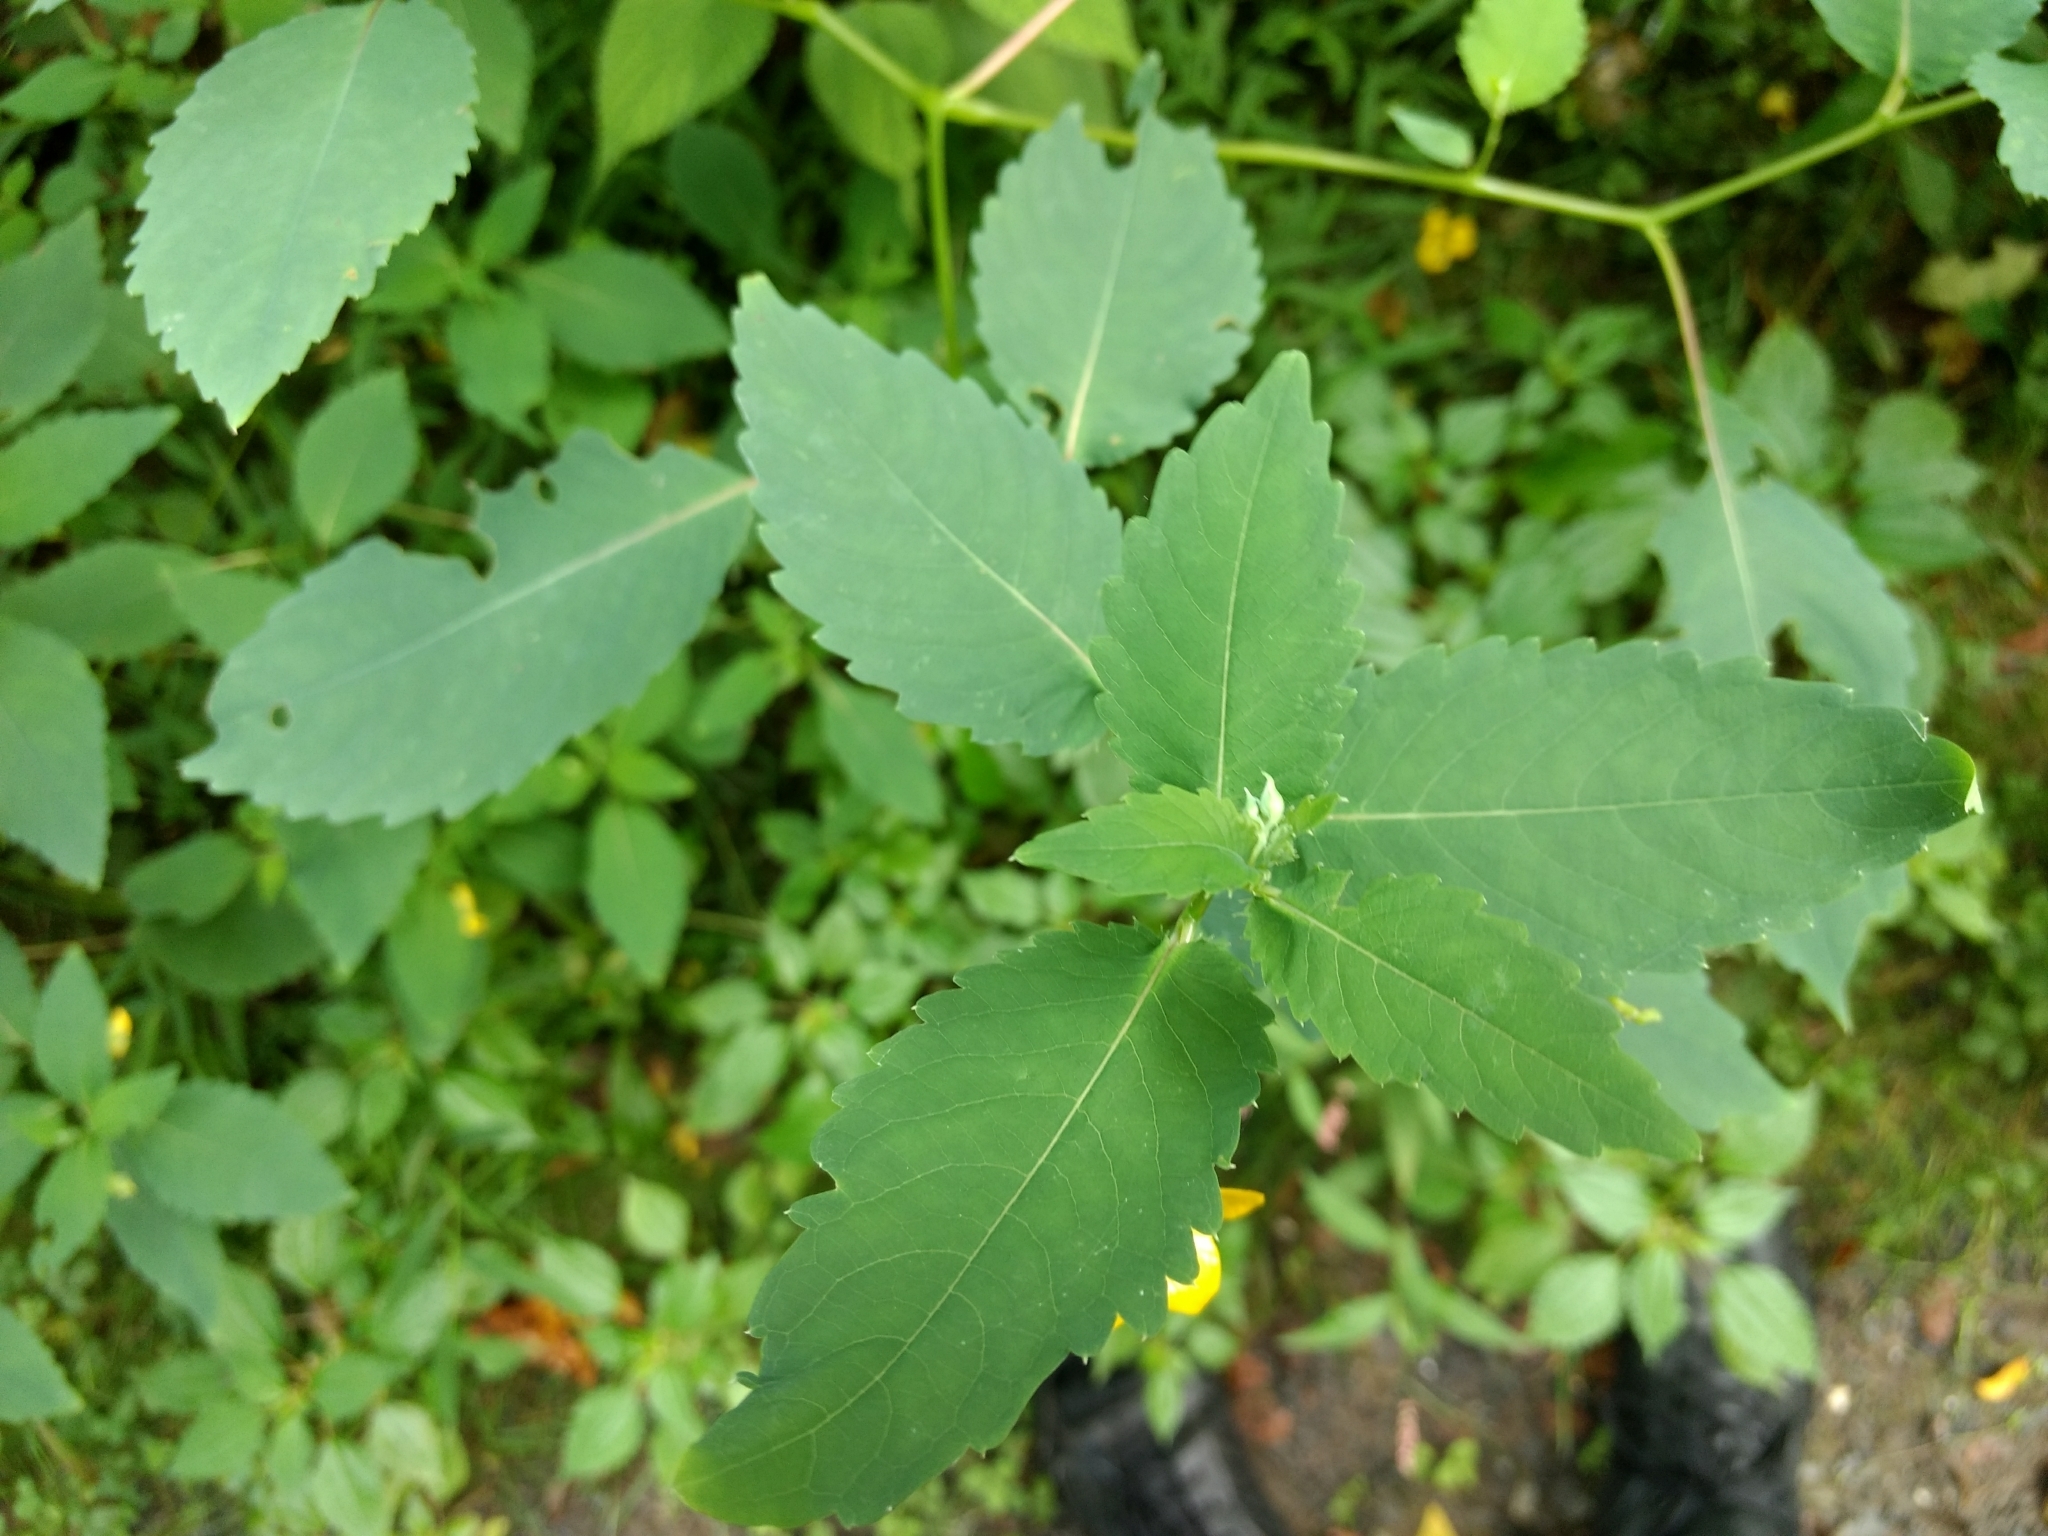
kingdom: Plantae
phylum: Tracheophyta
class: Magnoliopsida
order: Ericales
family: Balsaminaceae
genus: Impatiens
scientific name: Impatiens pallida
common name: Pale snapweed
